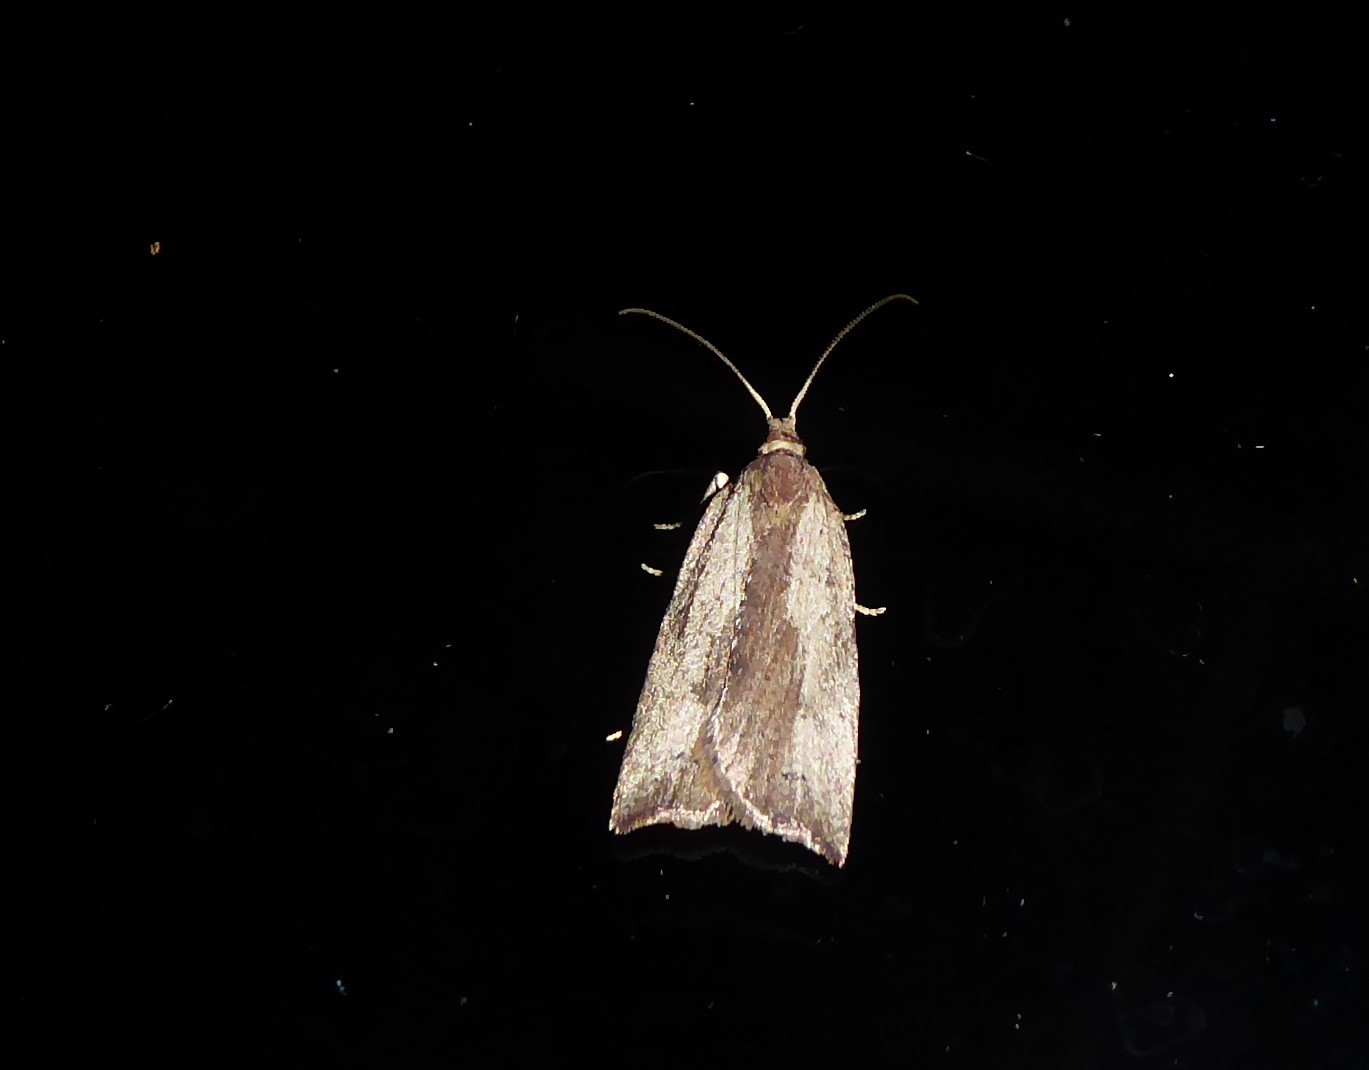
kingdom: Animalia
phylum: Arthropoda
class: Insecta
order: Lepidoptera
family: Tortricidae
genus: Planotortrix
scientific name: Planotortrix notophaea
